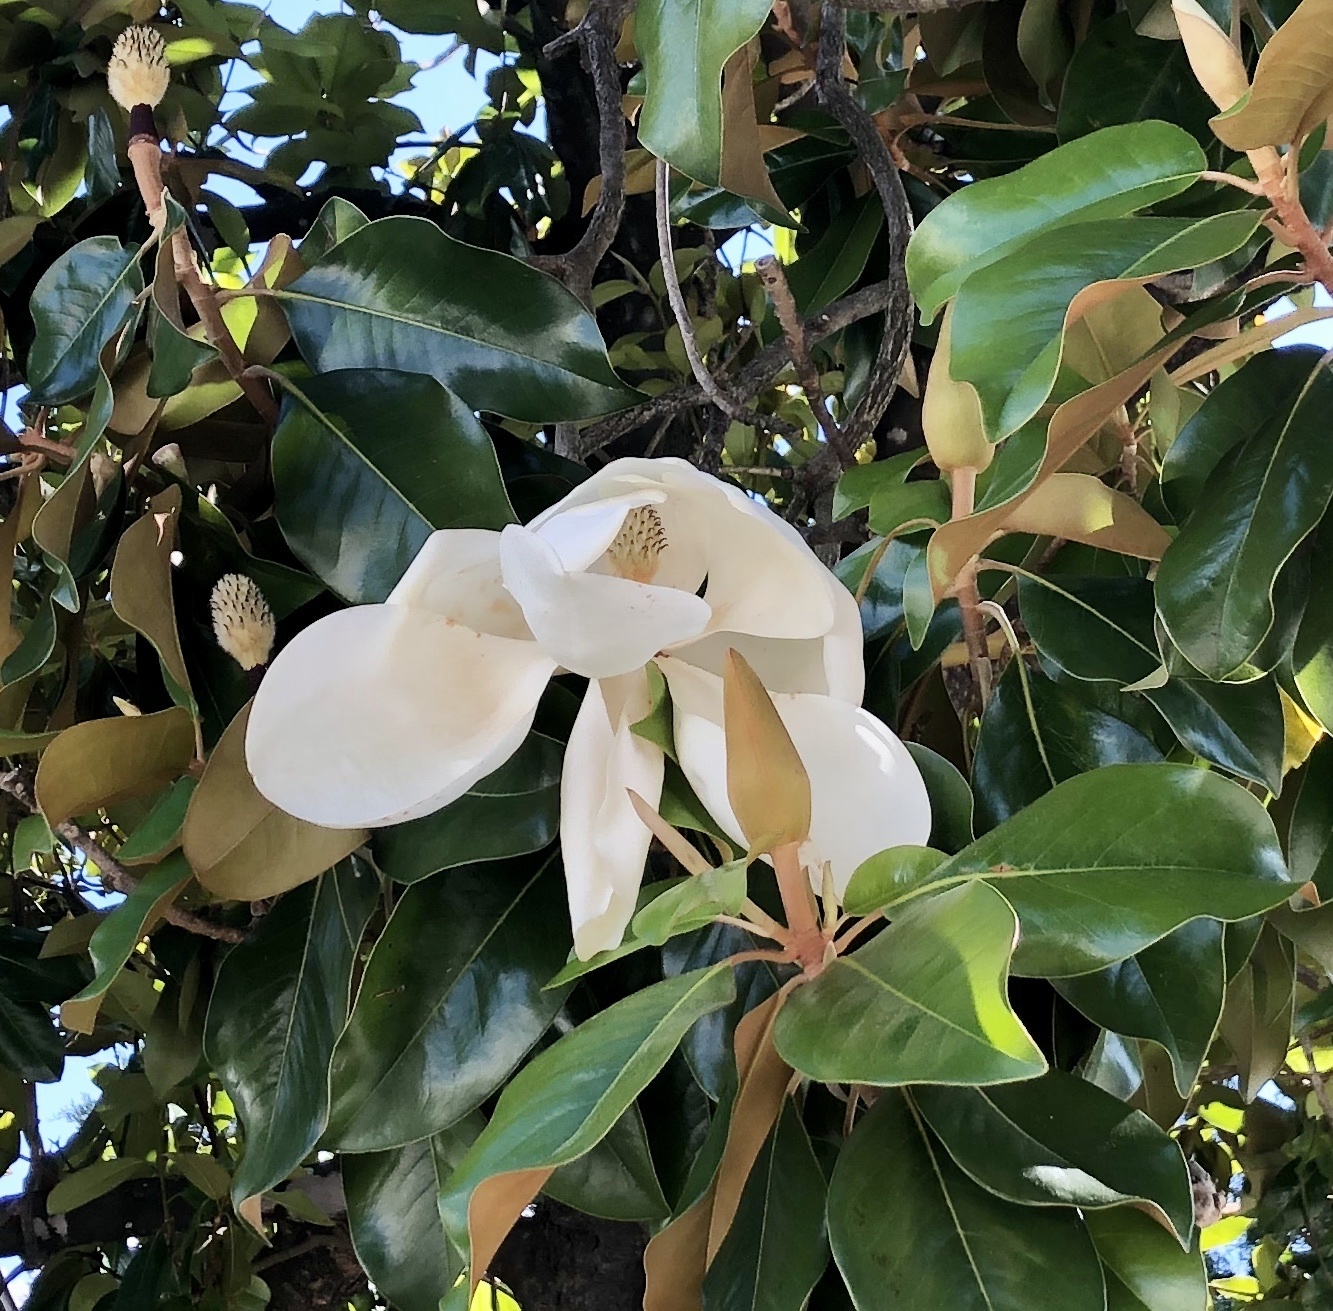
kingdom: Plantae
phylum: Tracheophyta
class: Magnoliopsida
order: Magnoliales
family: Magnoliaceae
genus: Magnolia
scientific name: Magnolia grandiflora
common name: Southern magnolia
